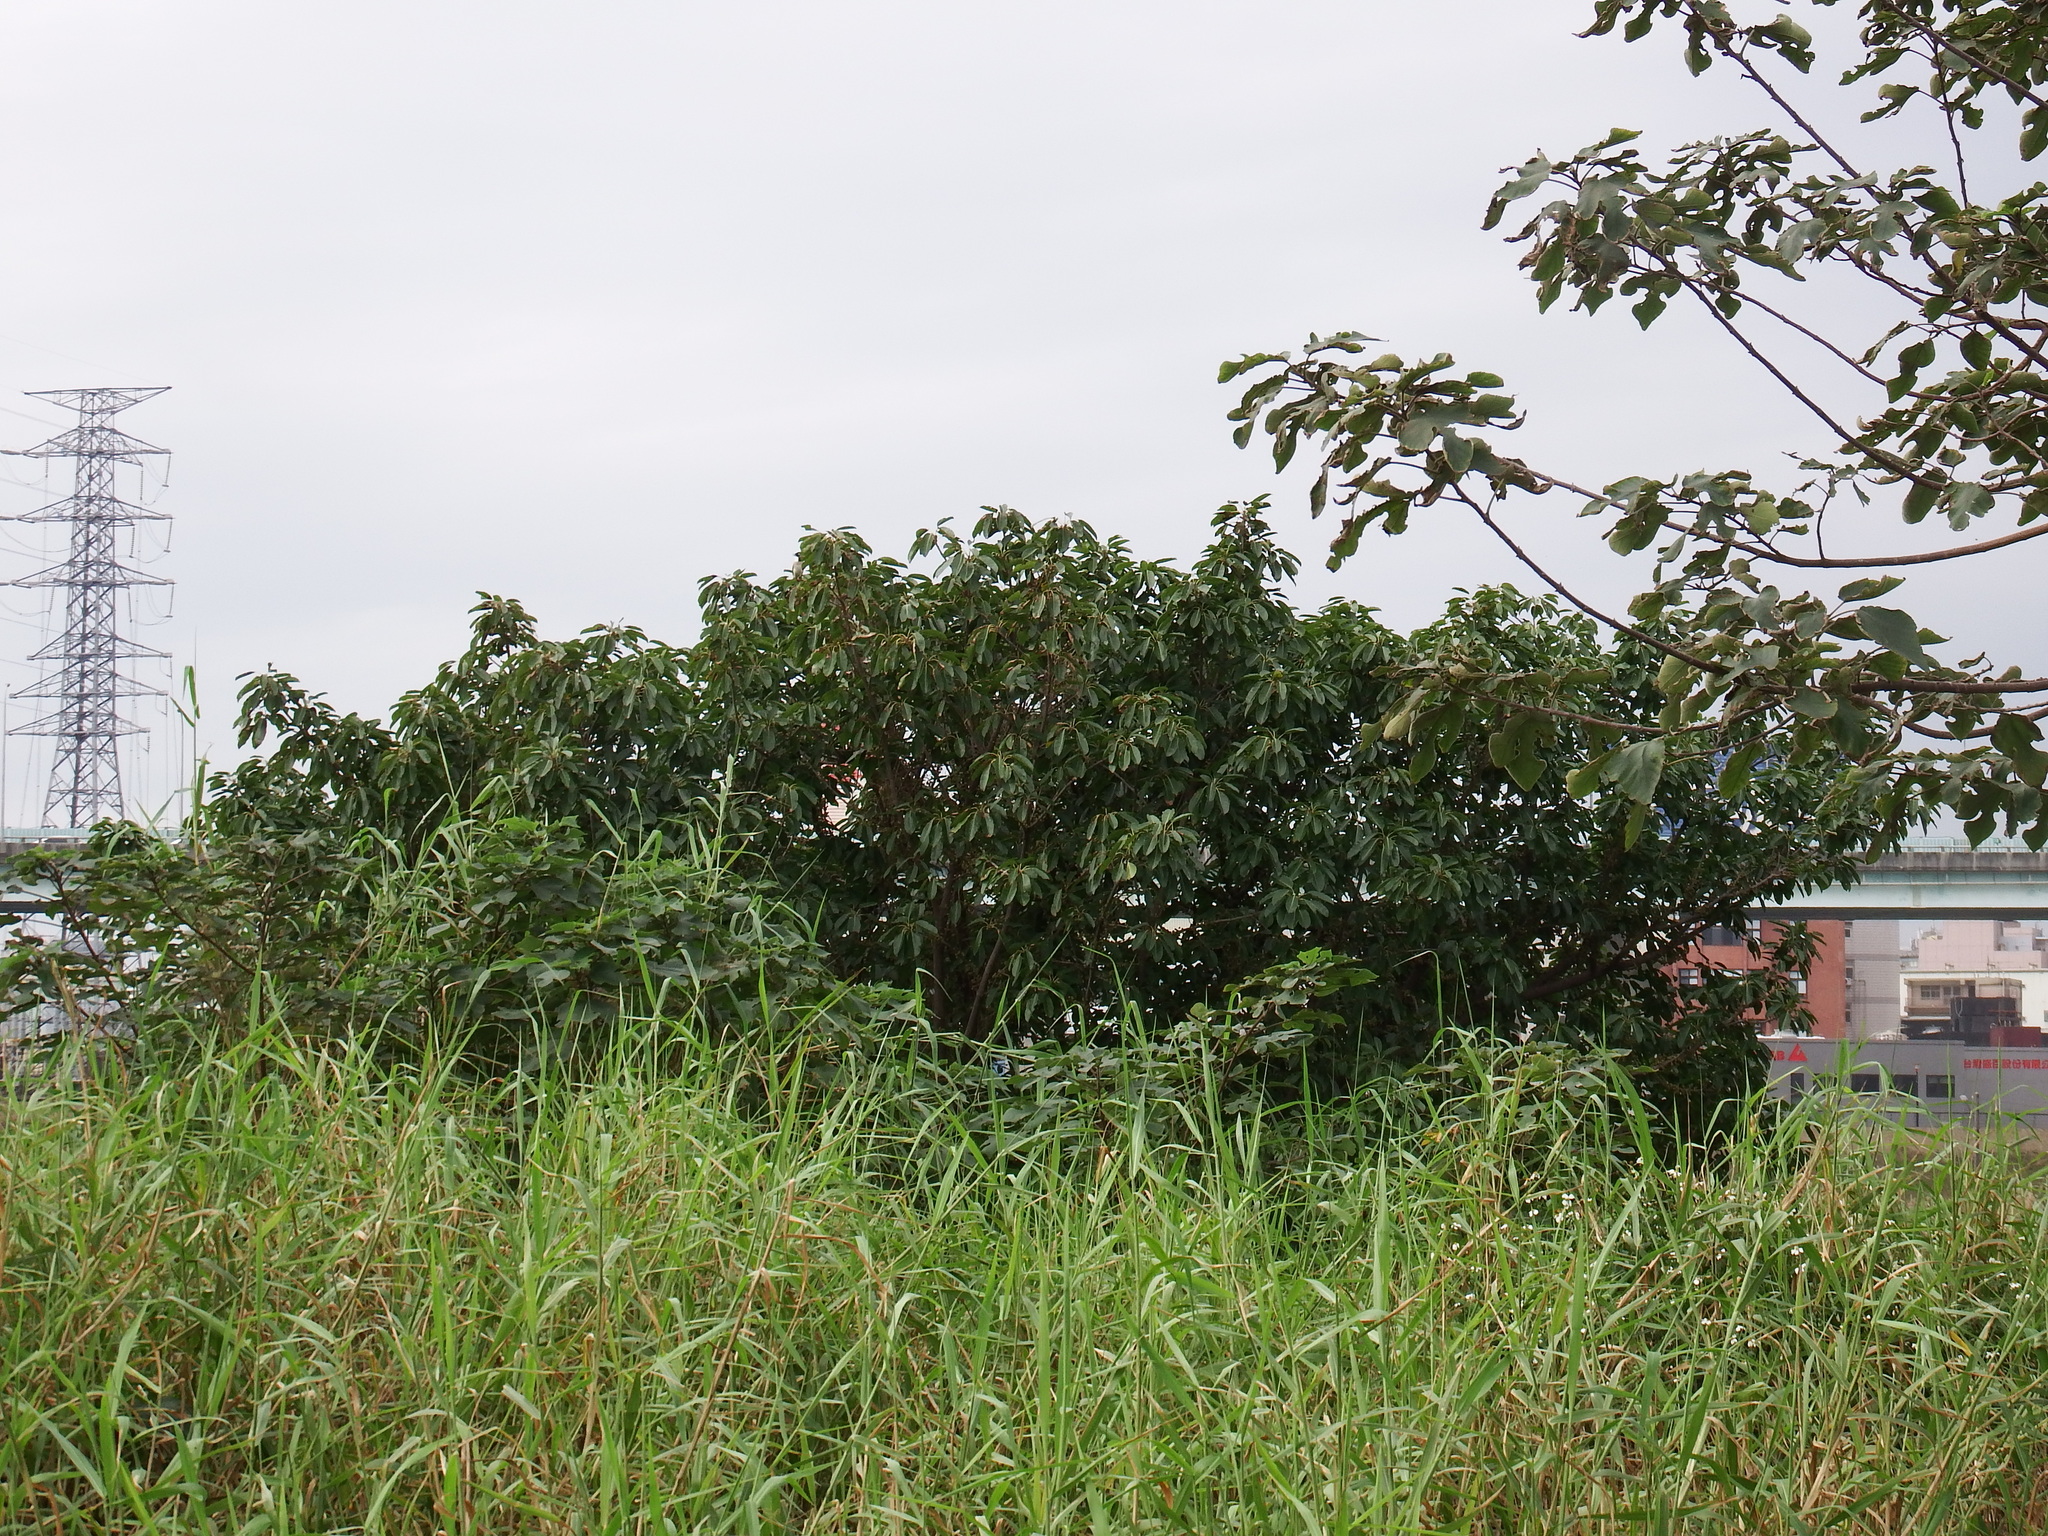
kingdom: Plantae
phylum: Tracheophyta
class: Magnoliopsida
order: Rosales
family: Moraceae
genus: Ficus
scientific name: Ficus subpisocarpa
